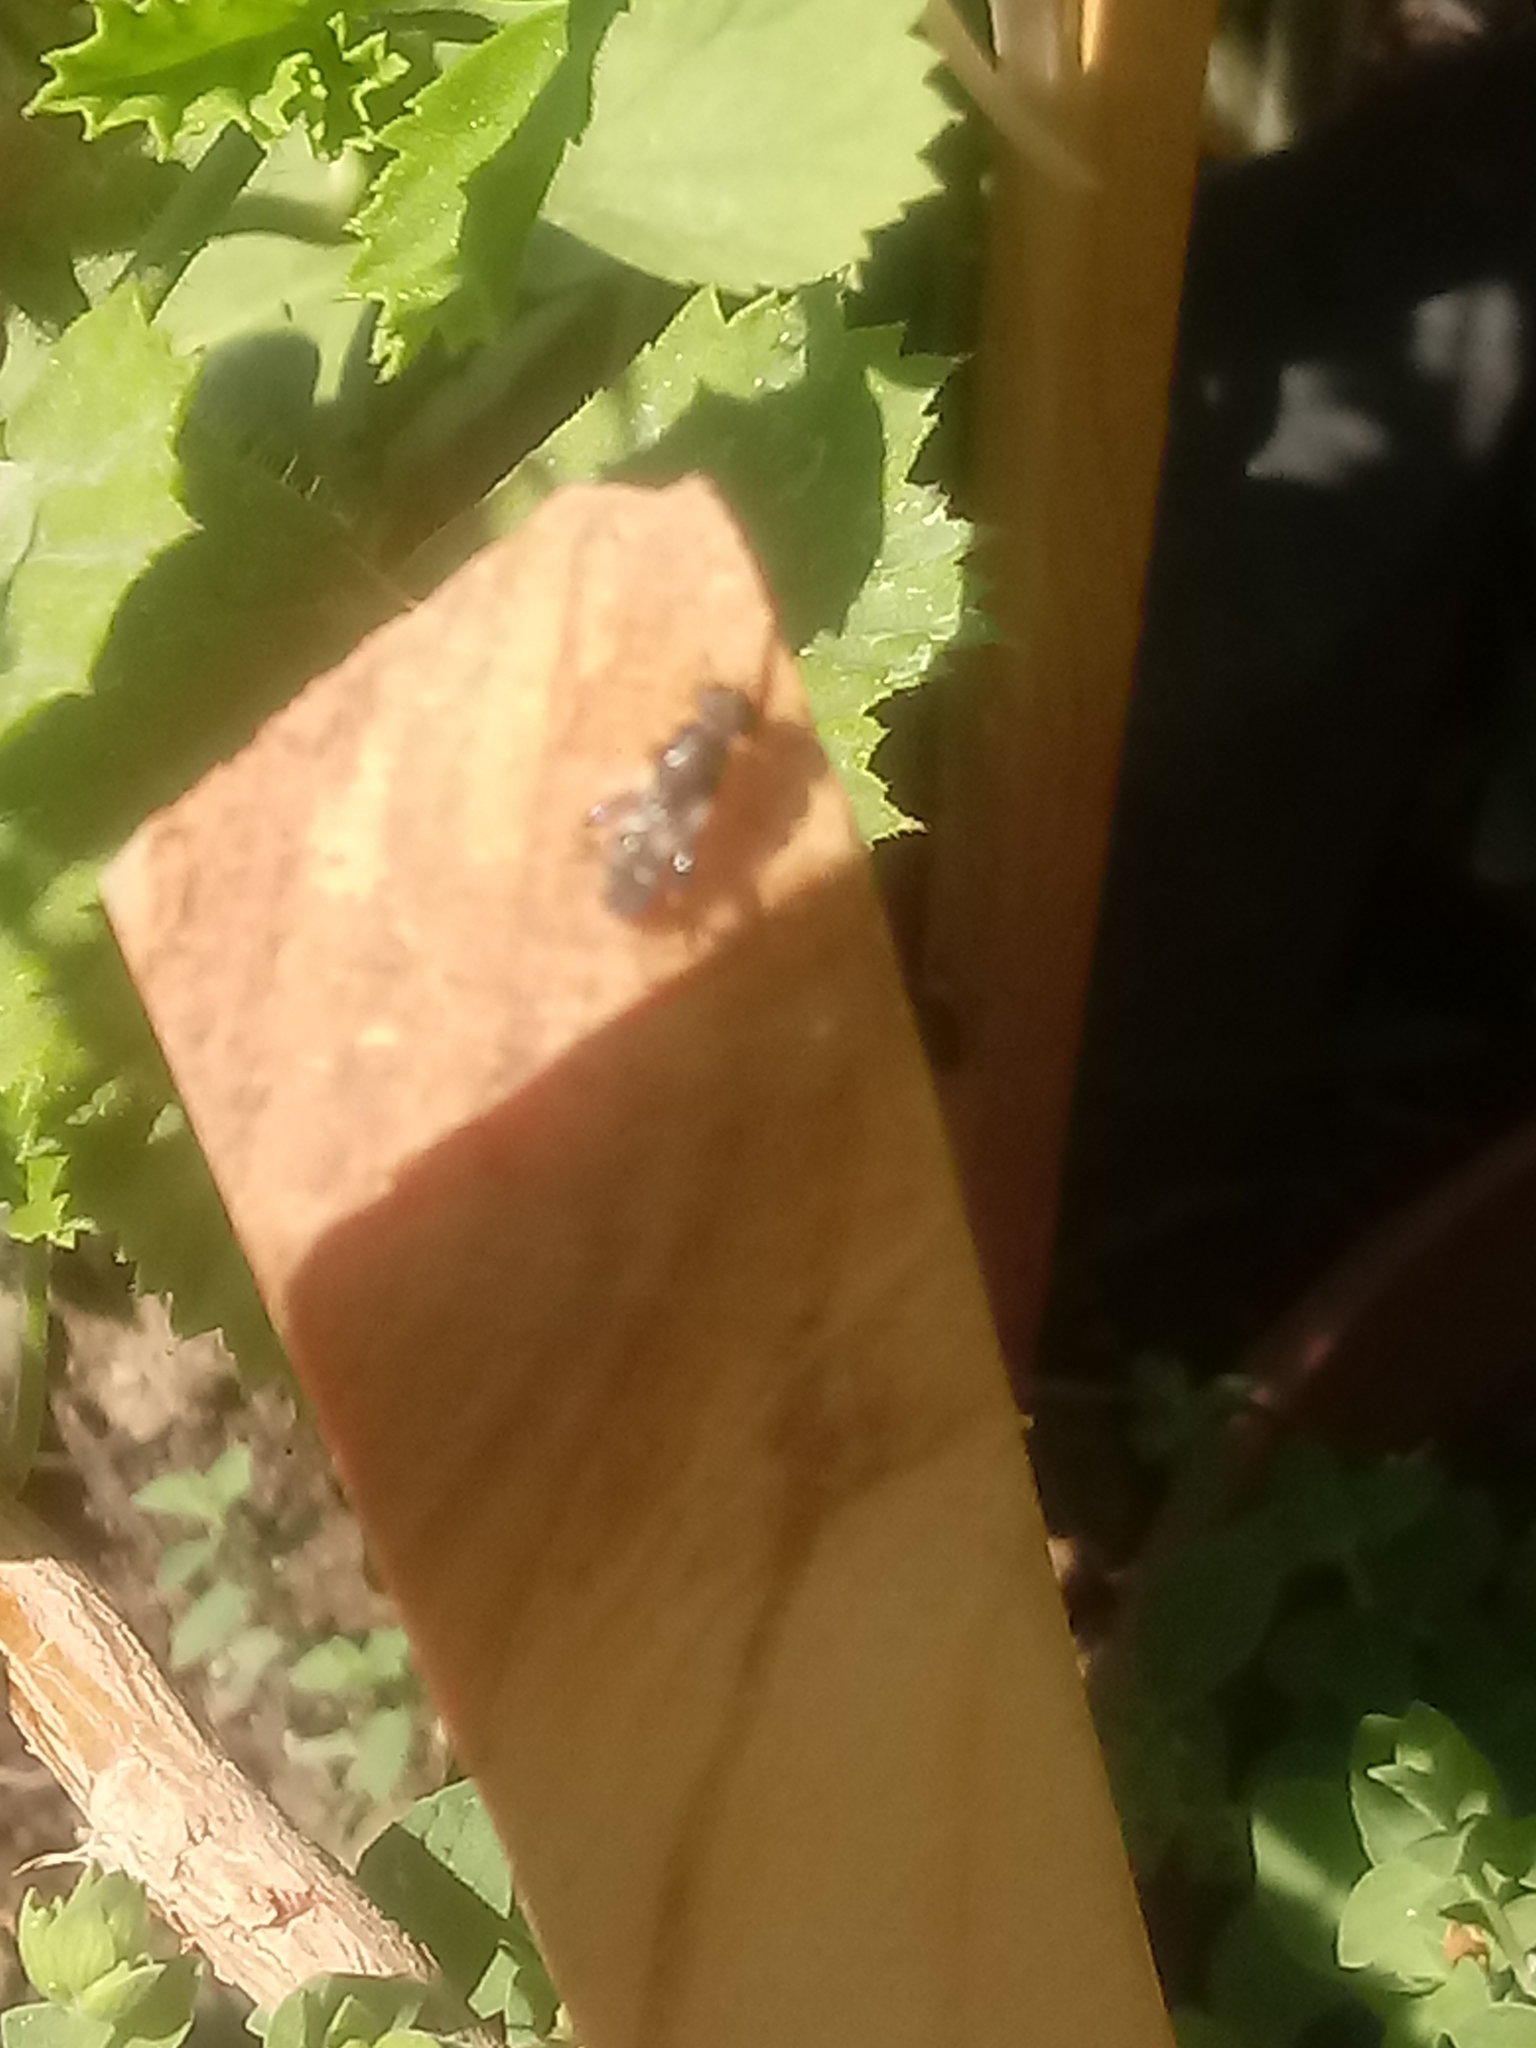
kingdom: Animalia
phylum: Arthropoda
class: Insecta
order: Diptera
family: Syrphidae
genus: Syritta
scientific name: Syritta pipiens
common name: Hover fly
